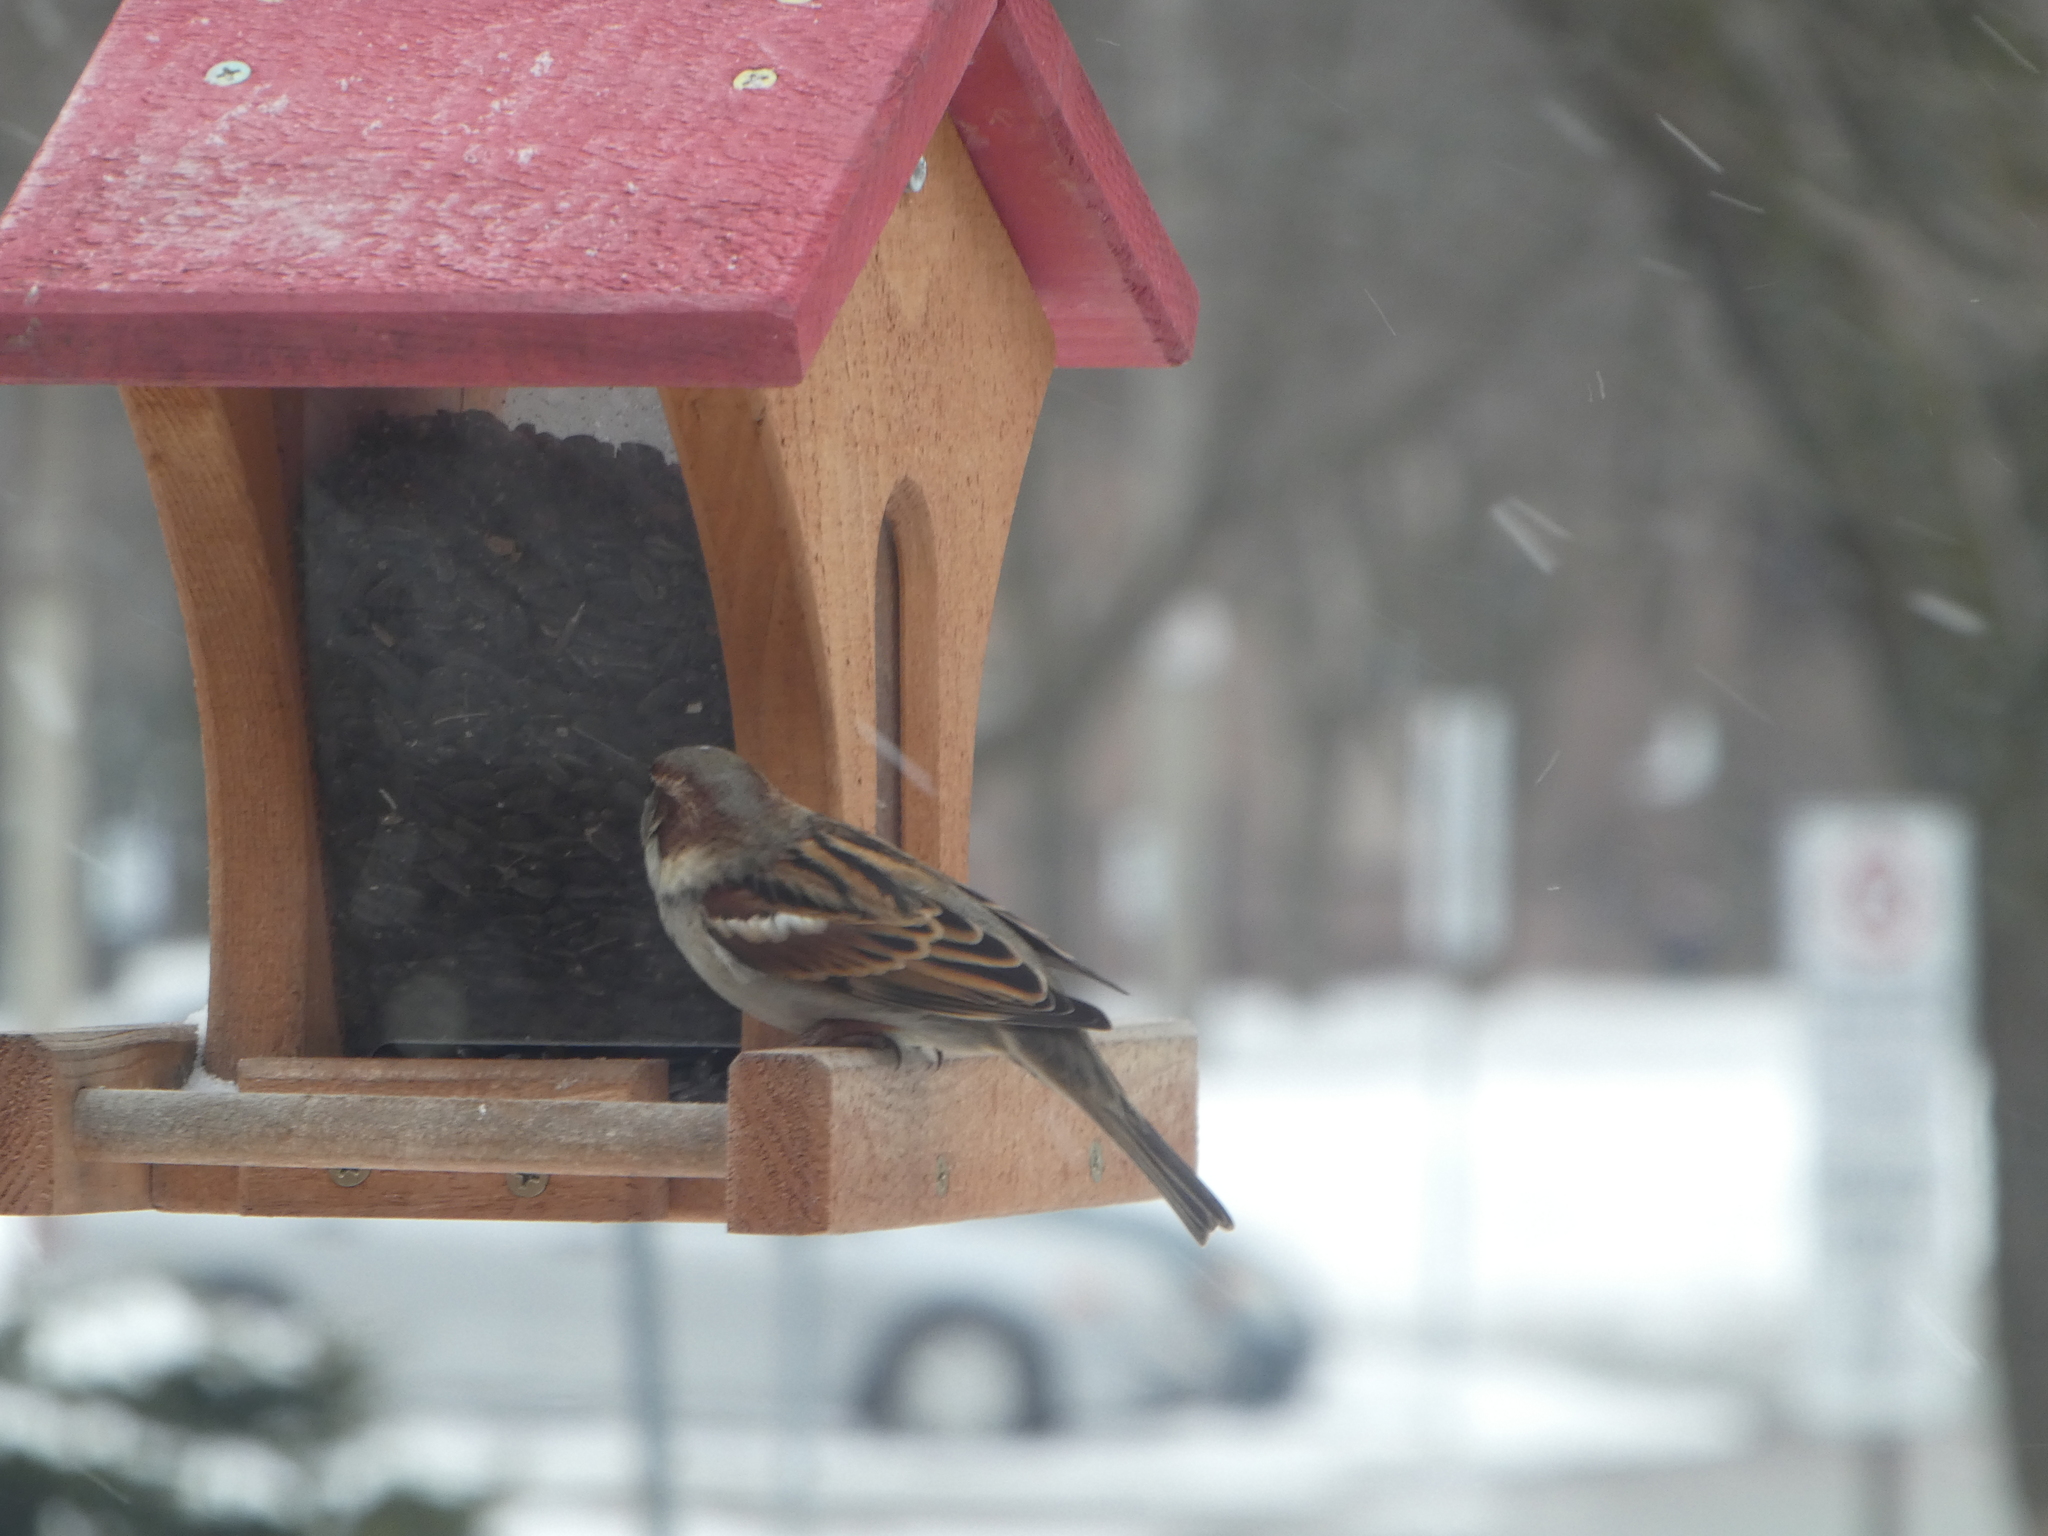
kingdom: Animalia
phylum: Chordata
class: Aves
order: Passeriformes
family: Passeridae
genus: Passer
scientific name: Passer domesticus
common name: House sparrow
